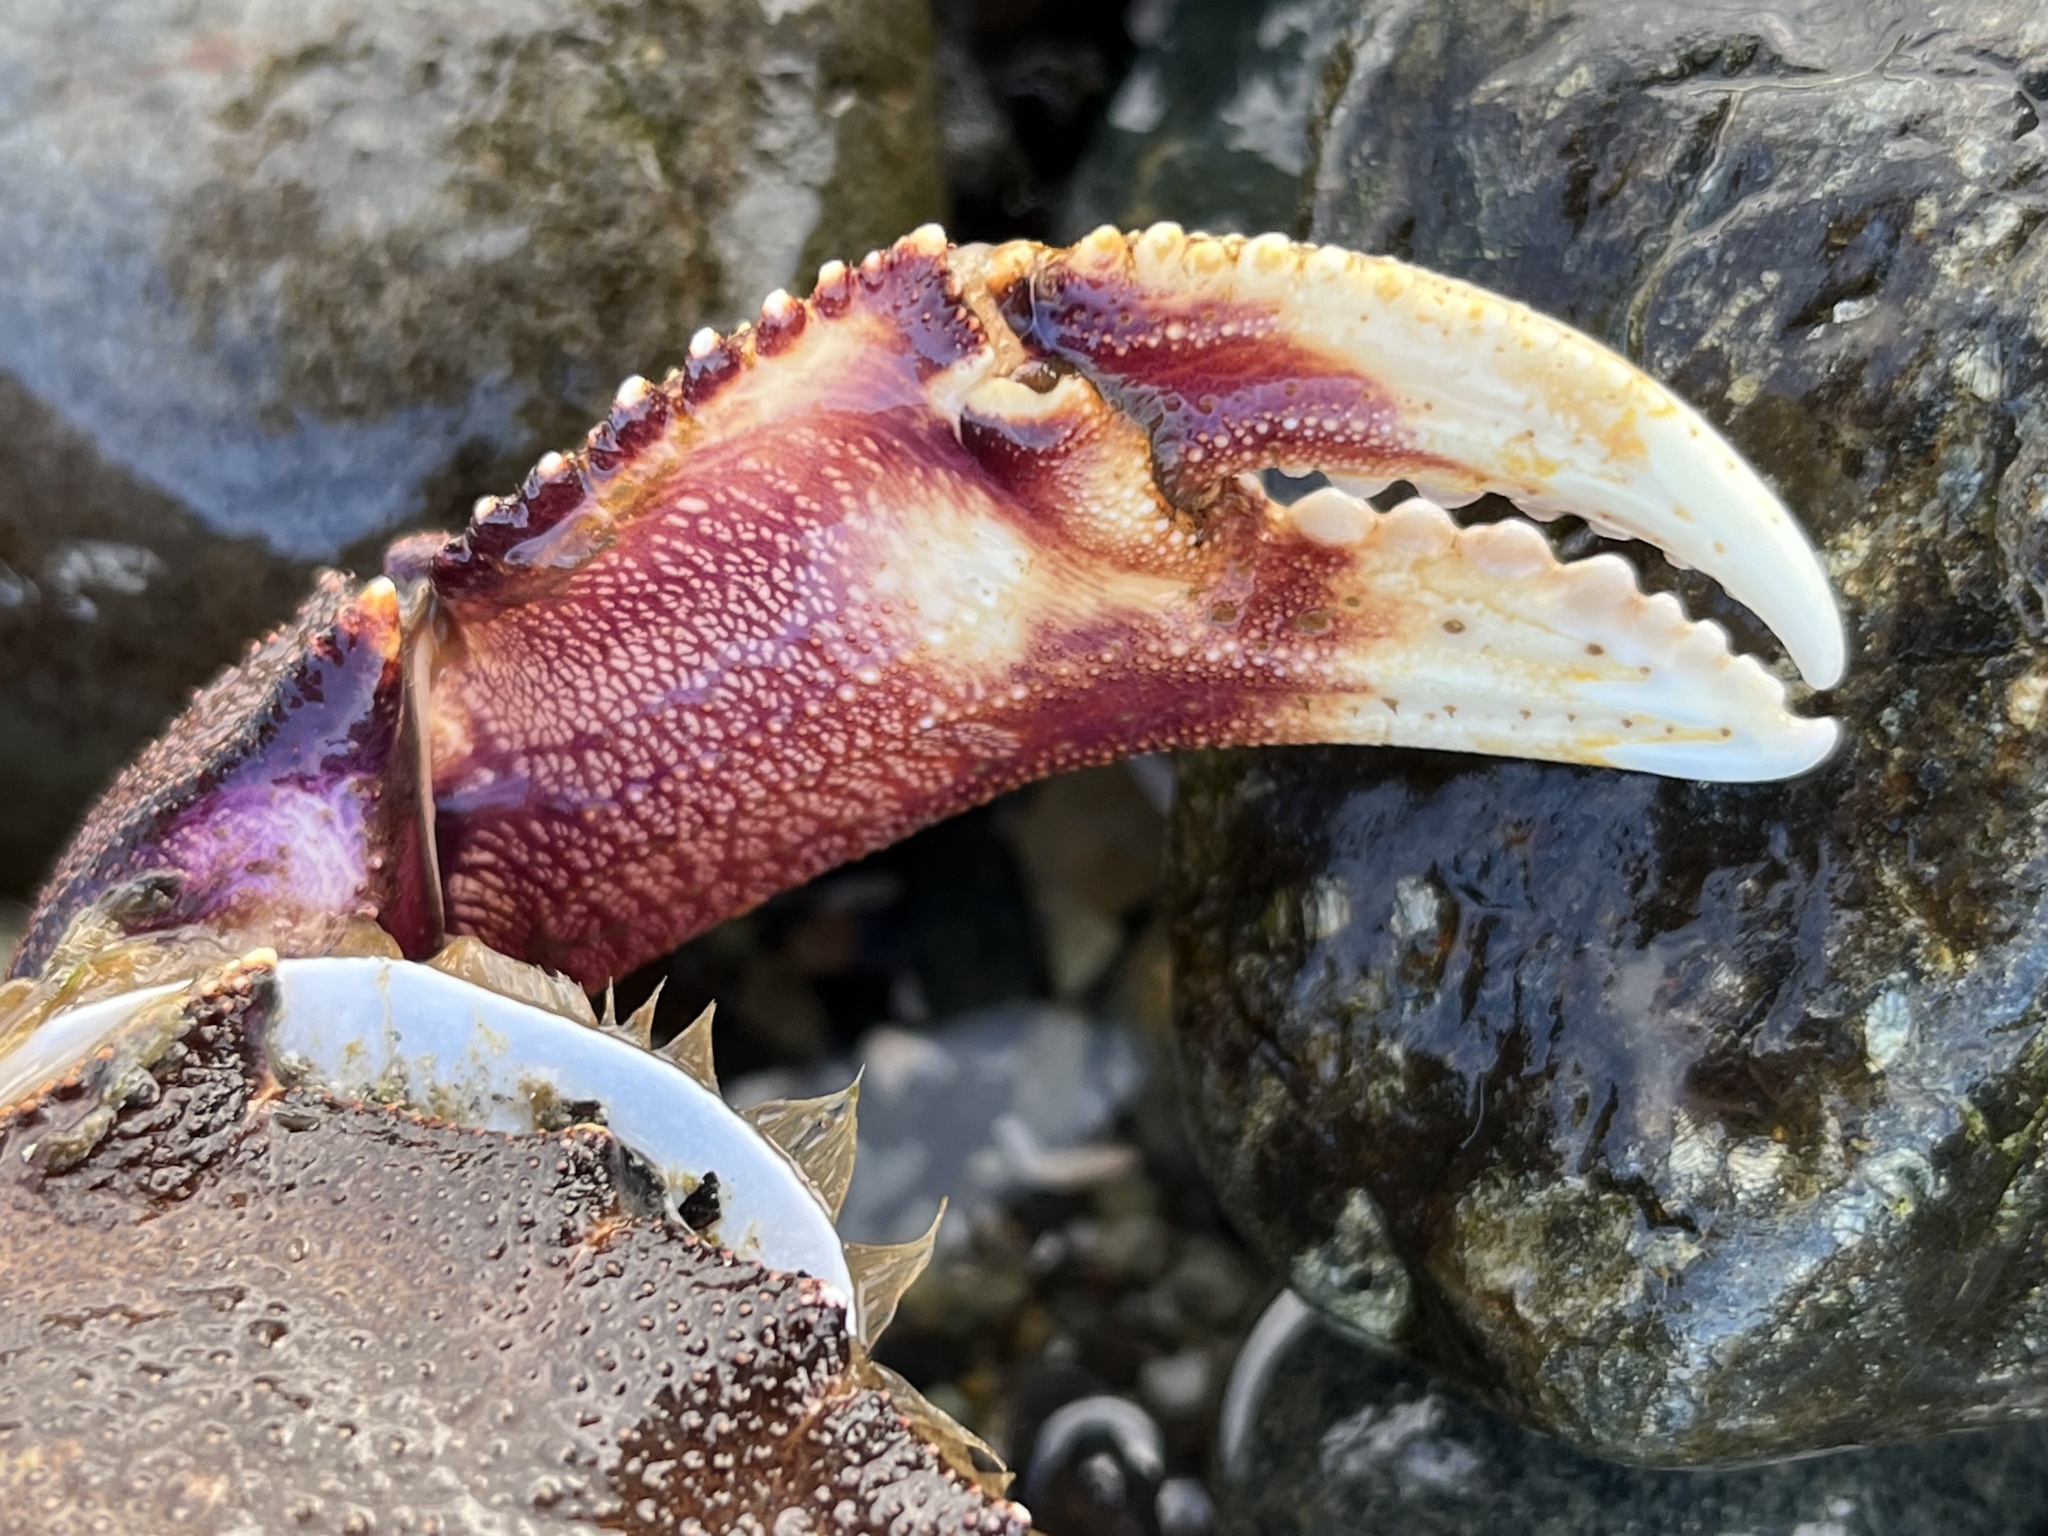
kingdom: Animalia
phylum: Arthropoda
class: Malacostraca
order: Decapoda
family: Cancridae
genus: Metacarcinus
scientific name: Metacarcinus magister
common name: Californian crab
